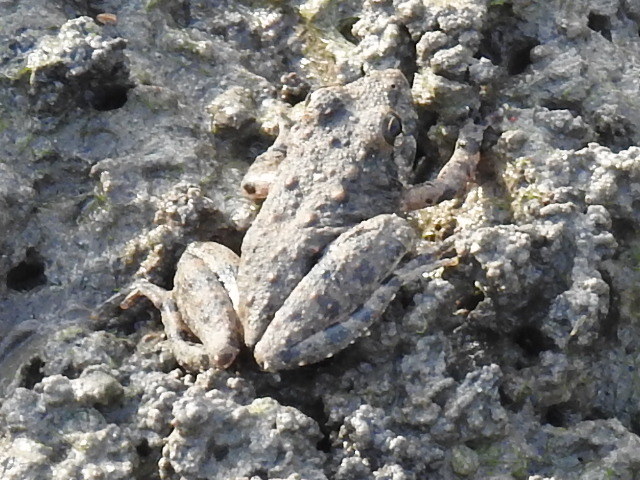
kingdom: Animalia
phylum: Chordata
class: Amphibia
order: Anura
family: Hylidae
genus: Acris
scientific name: Acris blanchardi
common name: Blanchard's cricket frog
